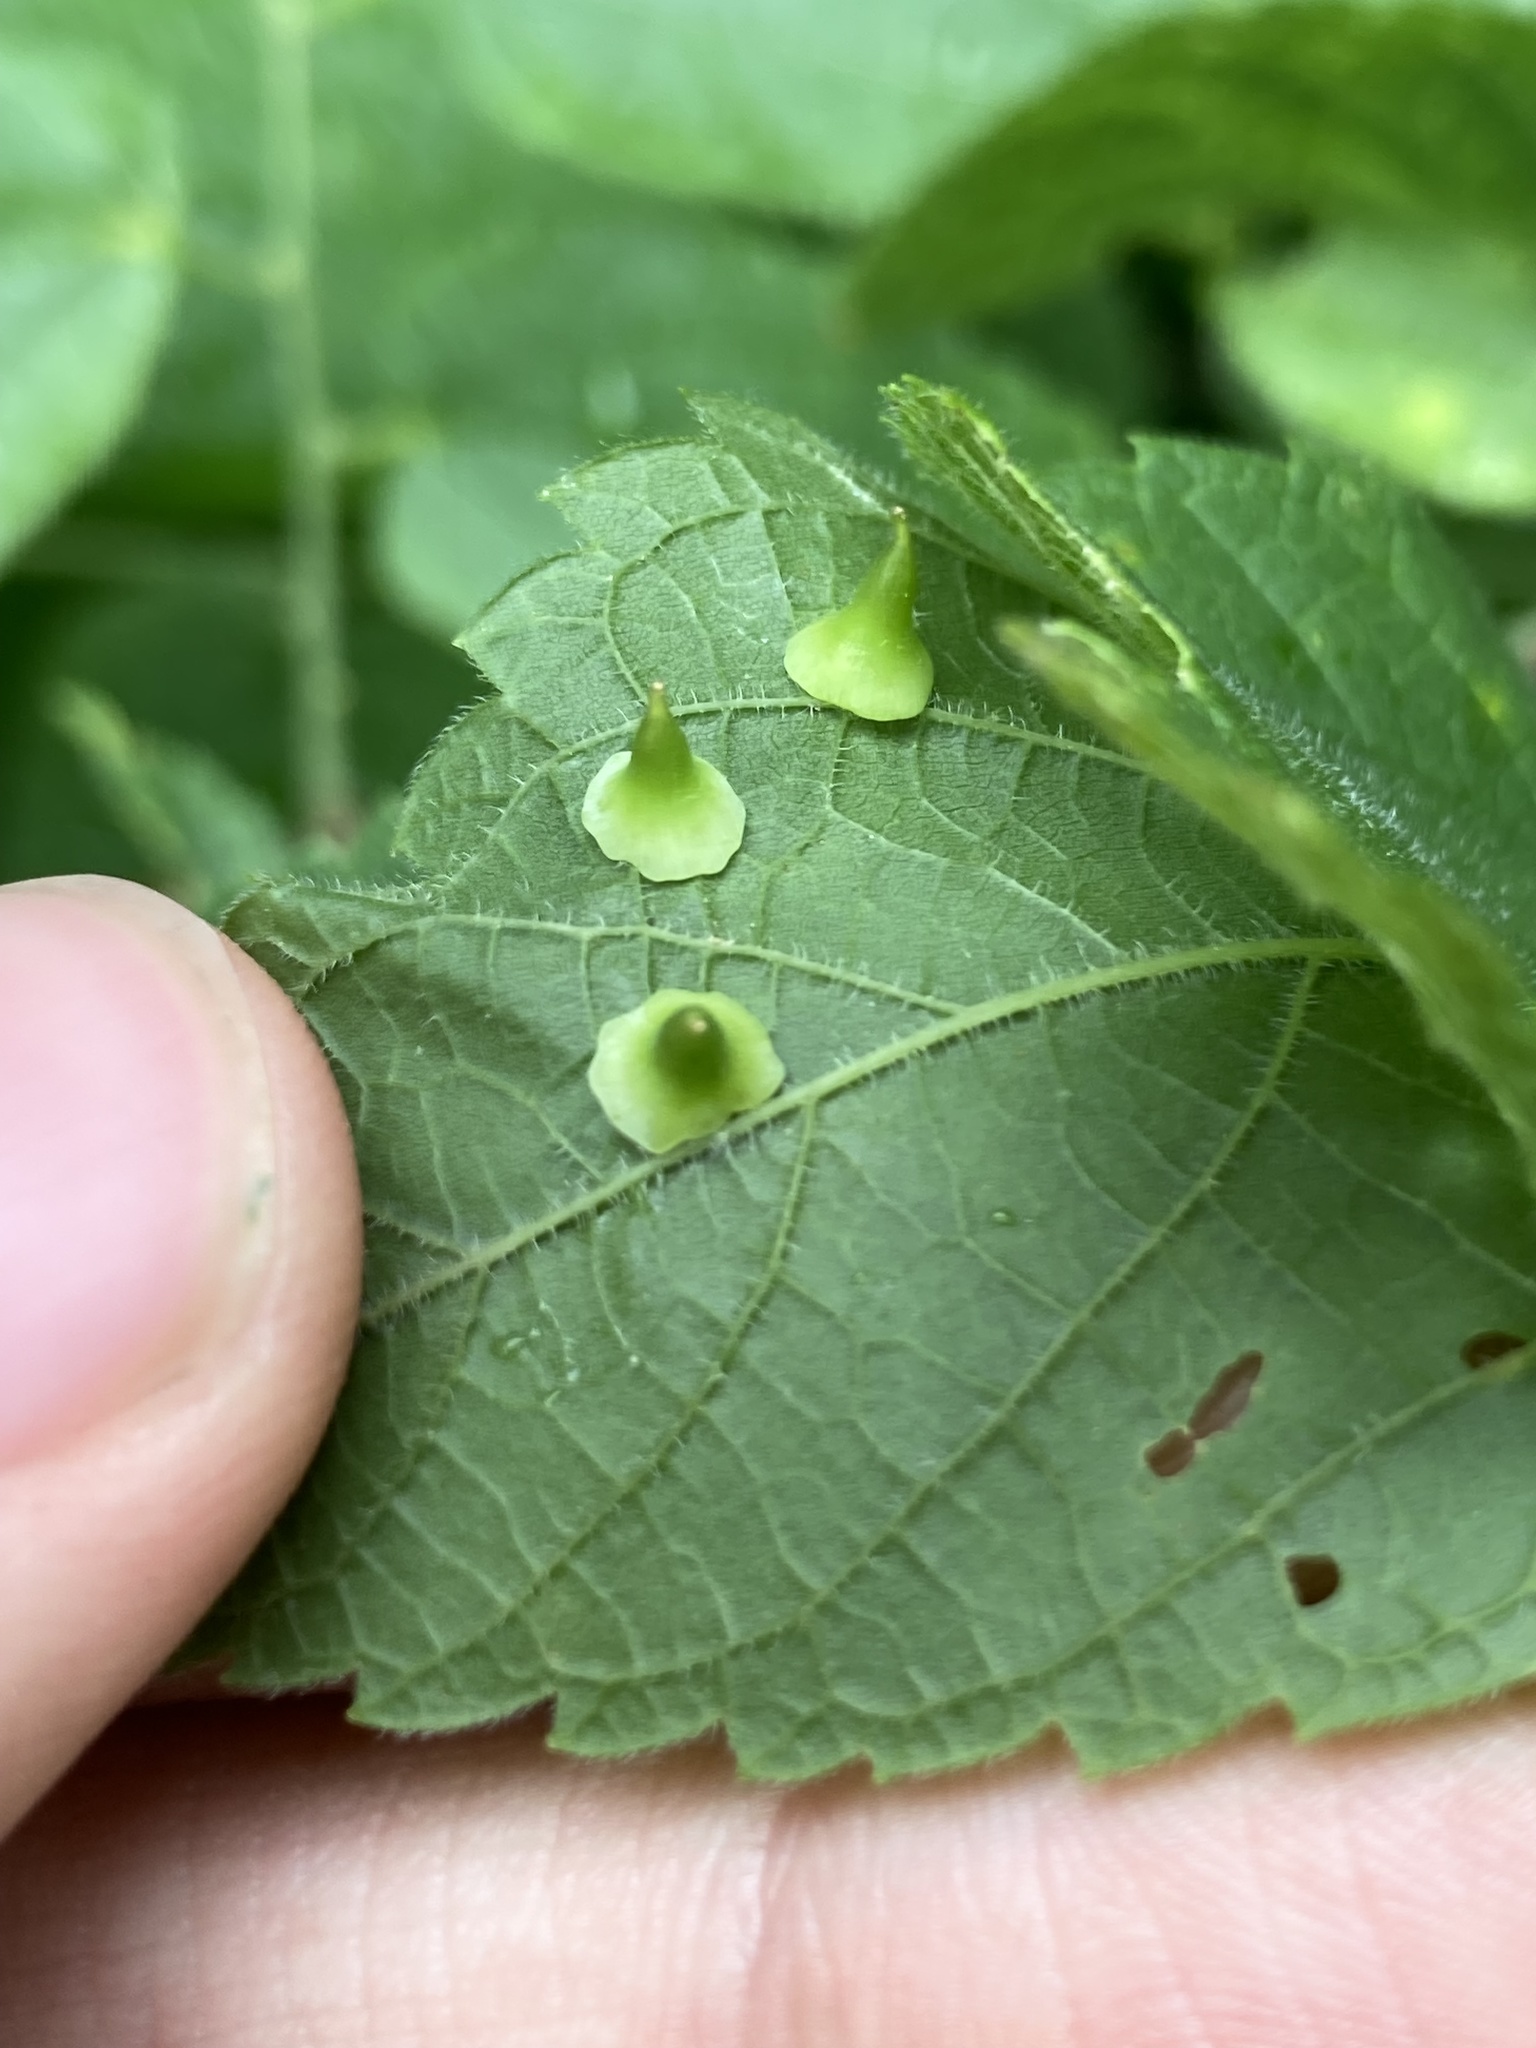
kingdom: Animalia
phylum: Arthropoda
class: Insecta
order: Diptera
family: Cecidomyiidae
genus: Celticecis
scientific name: Celticecis spiniformis
